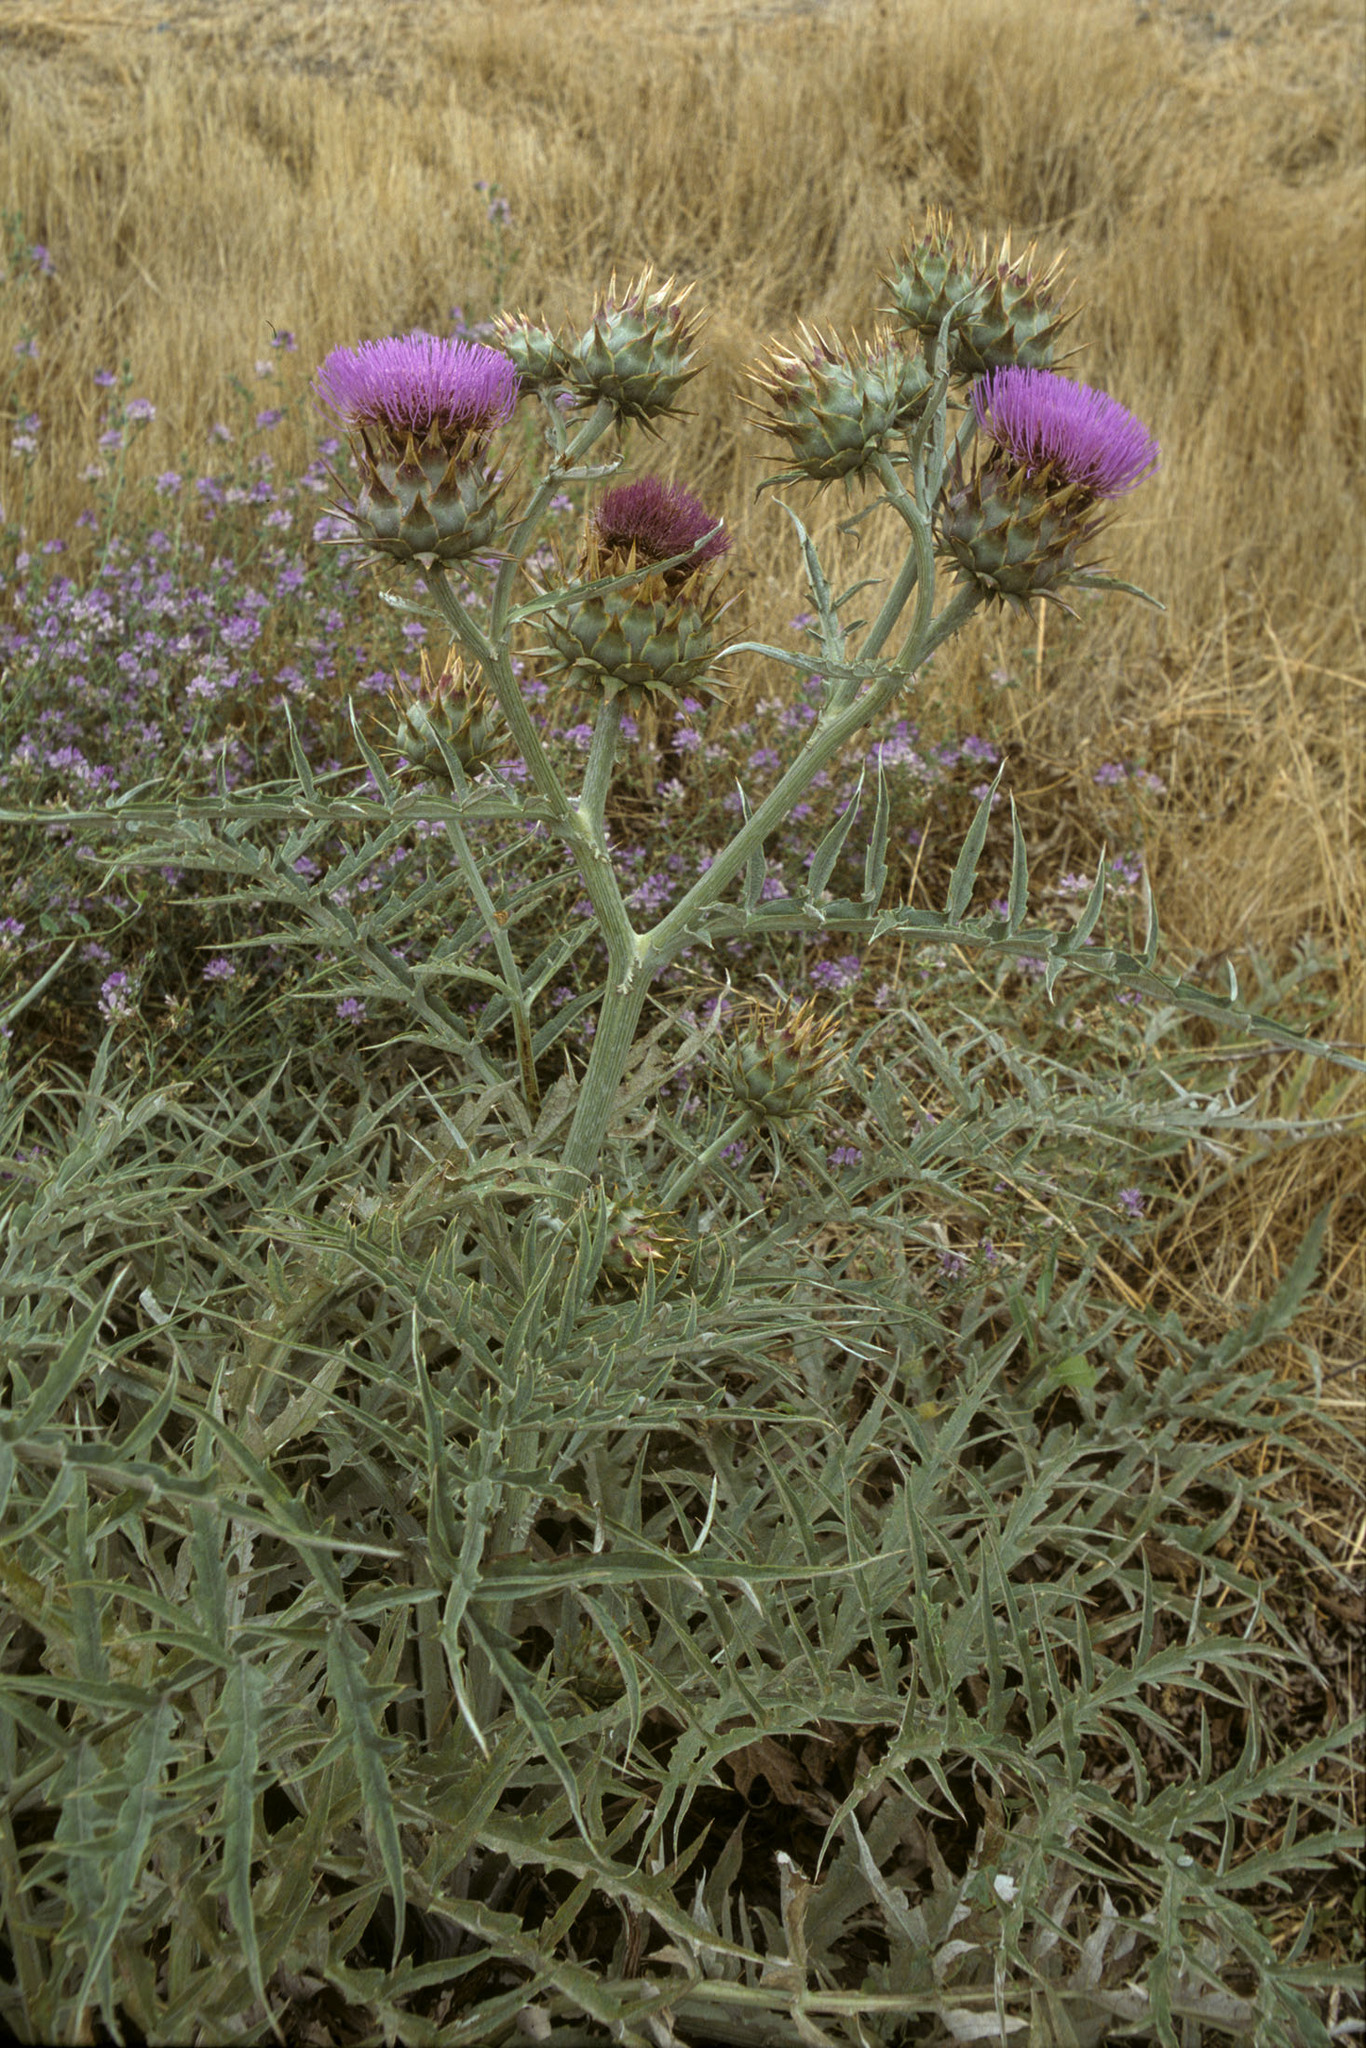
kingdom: Plantae
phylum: Tracheophyta
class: Magnoliopsida
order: Asterales
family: Asteraceae
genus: Cynara
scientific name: Cynara cardunculus
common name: Globe artichoke
